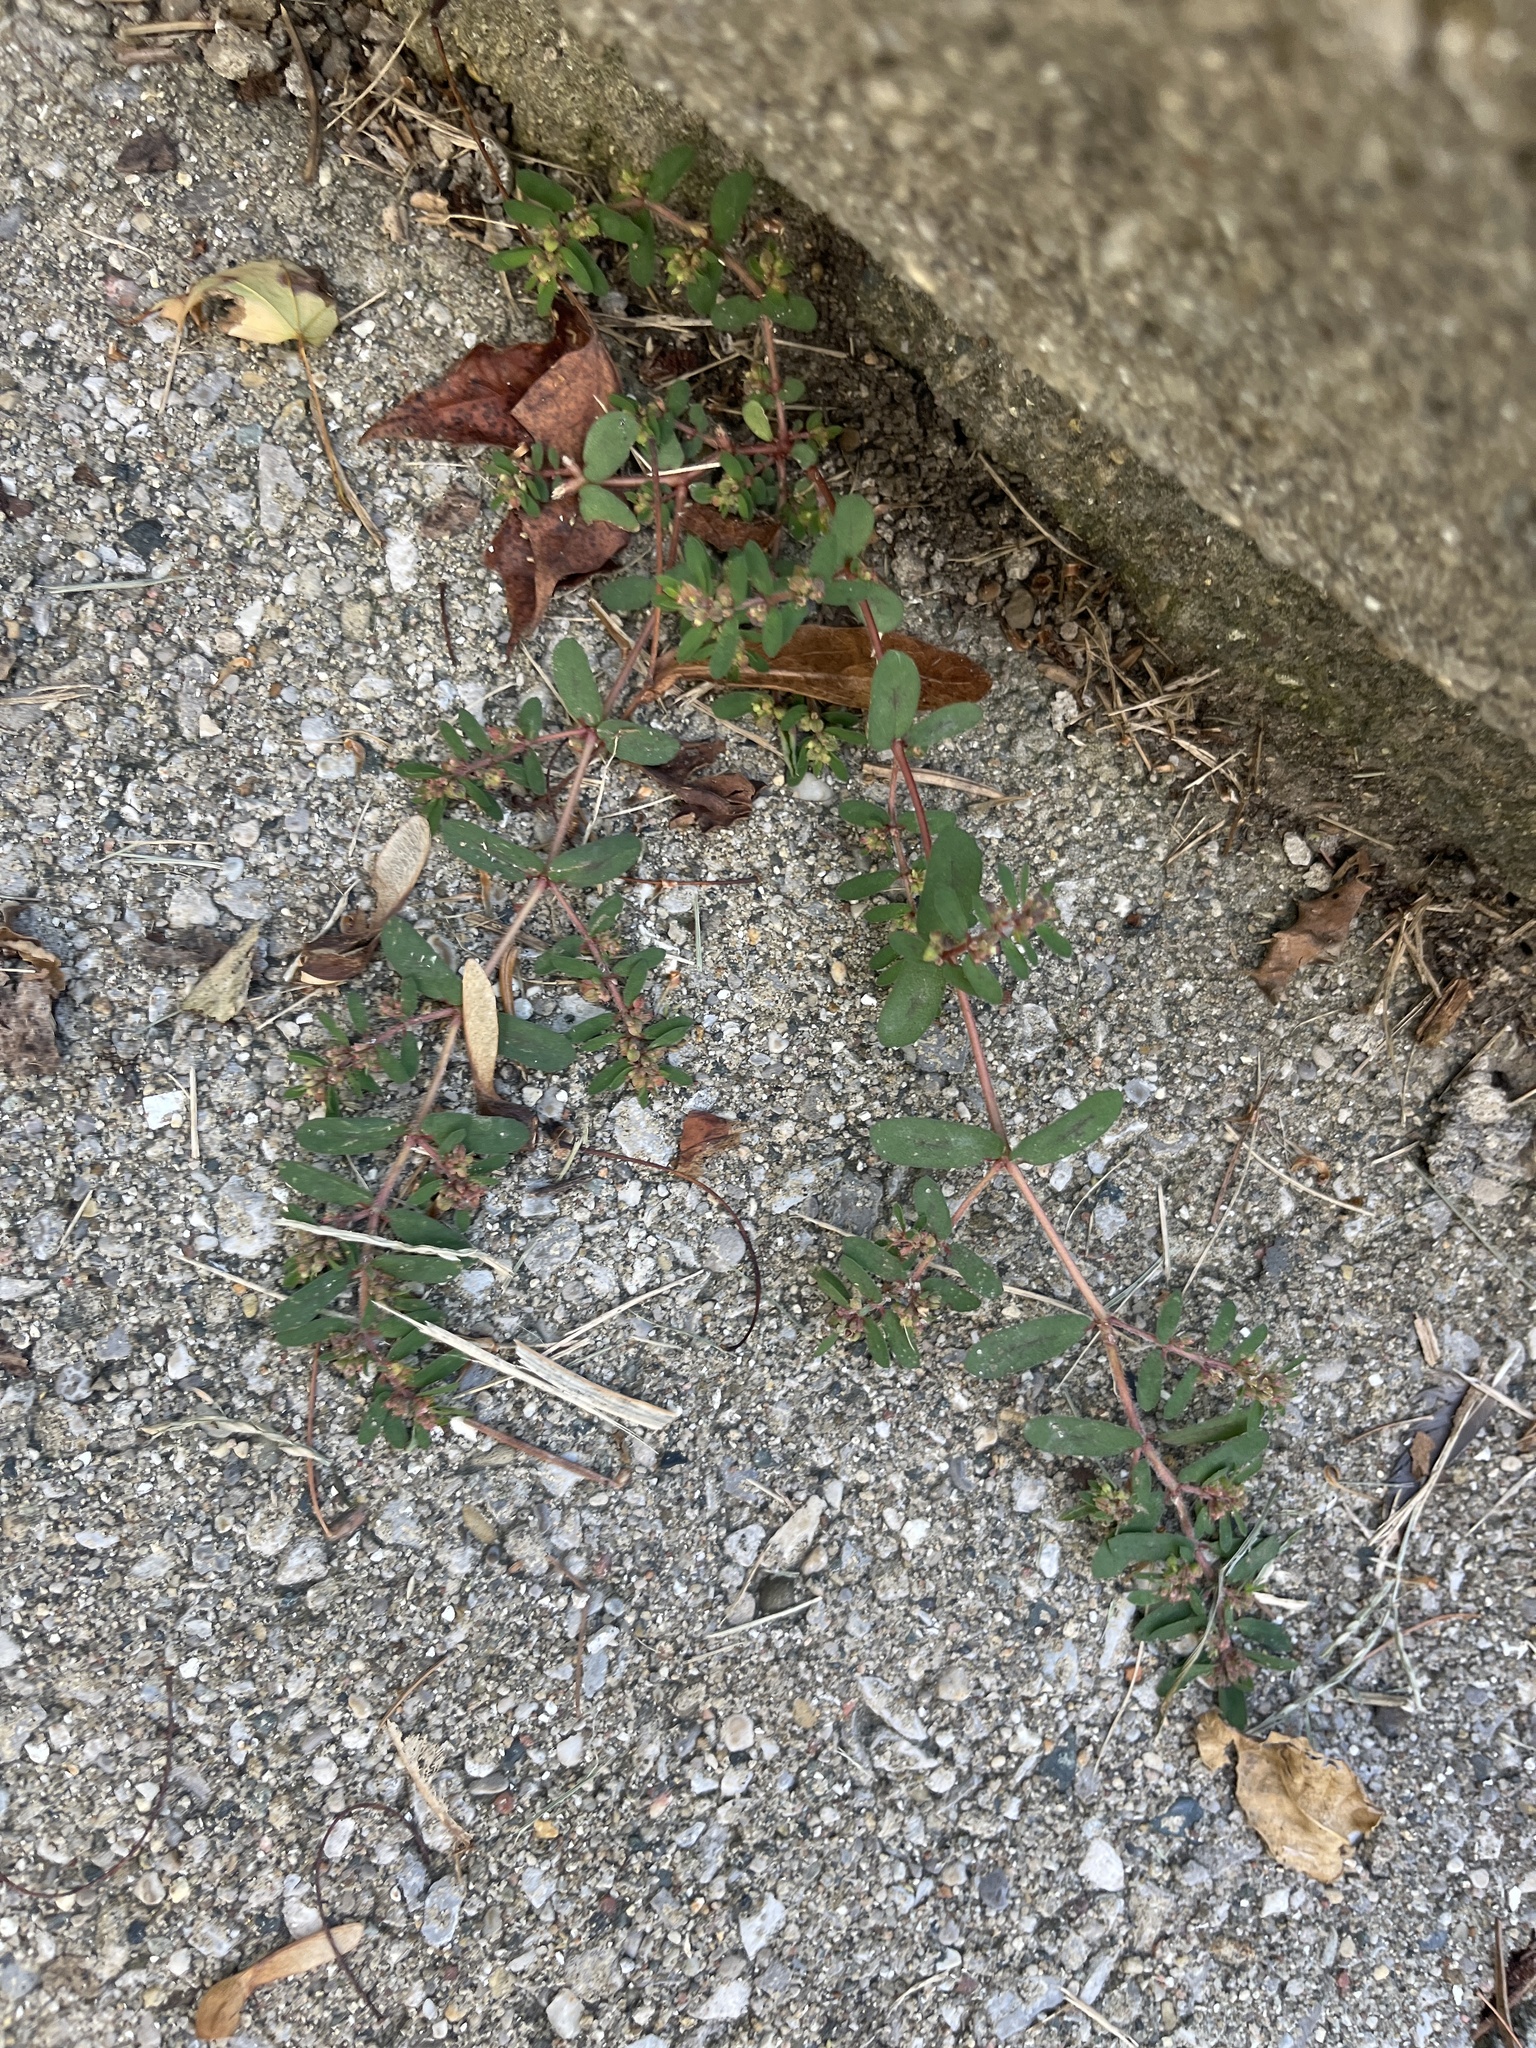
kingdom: Plantae
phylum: Tracheophyta
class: Magnoliopsida
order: Malpighiales
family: Euphorbiaceae
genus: Euphorbia
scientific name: Euphorbia maculata
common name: Spotted spurge
